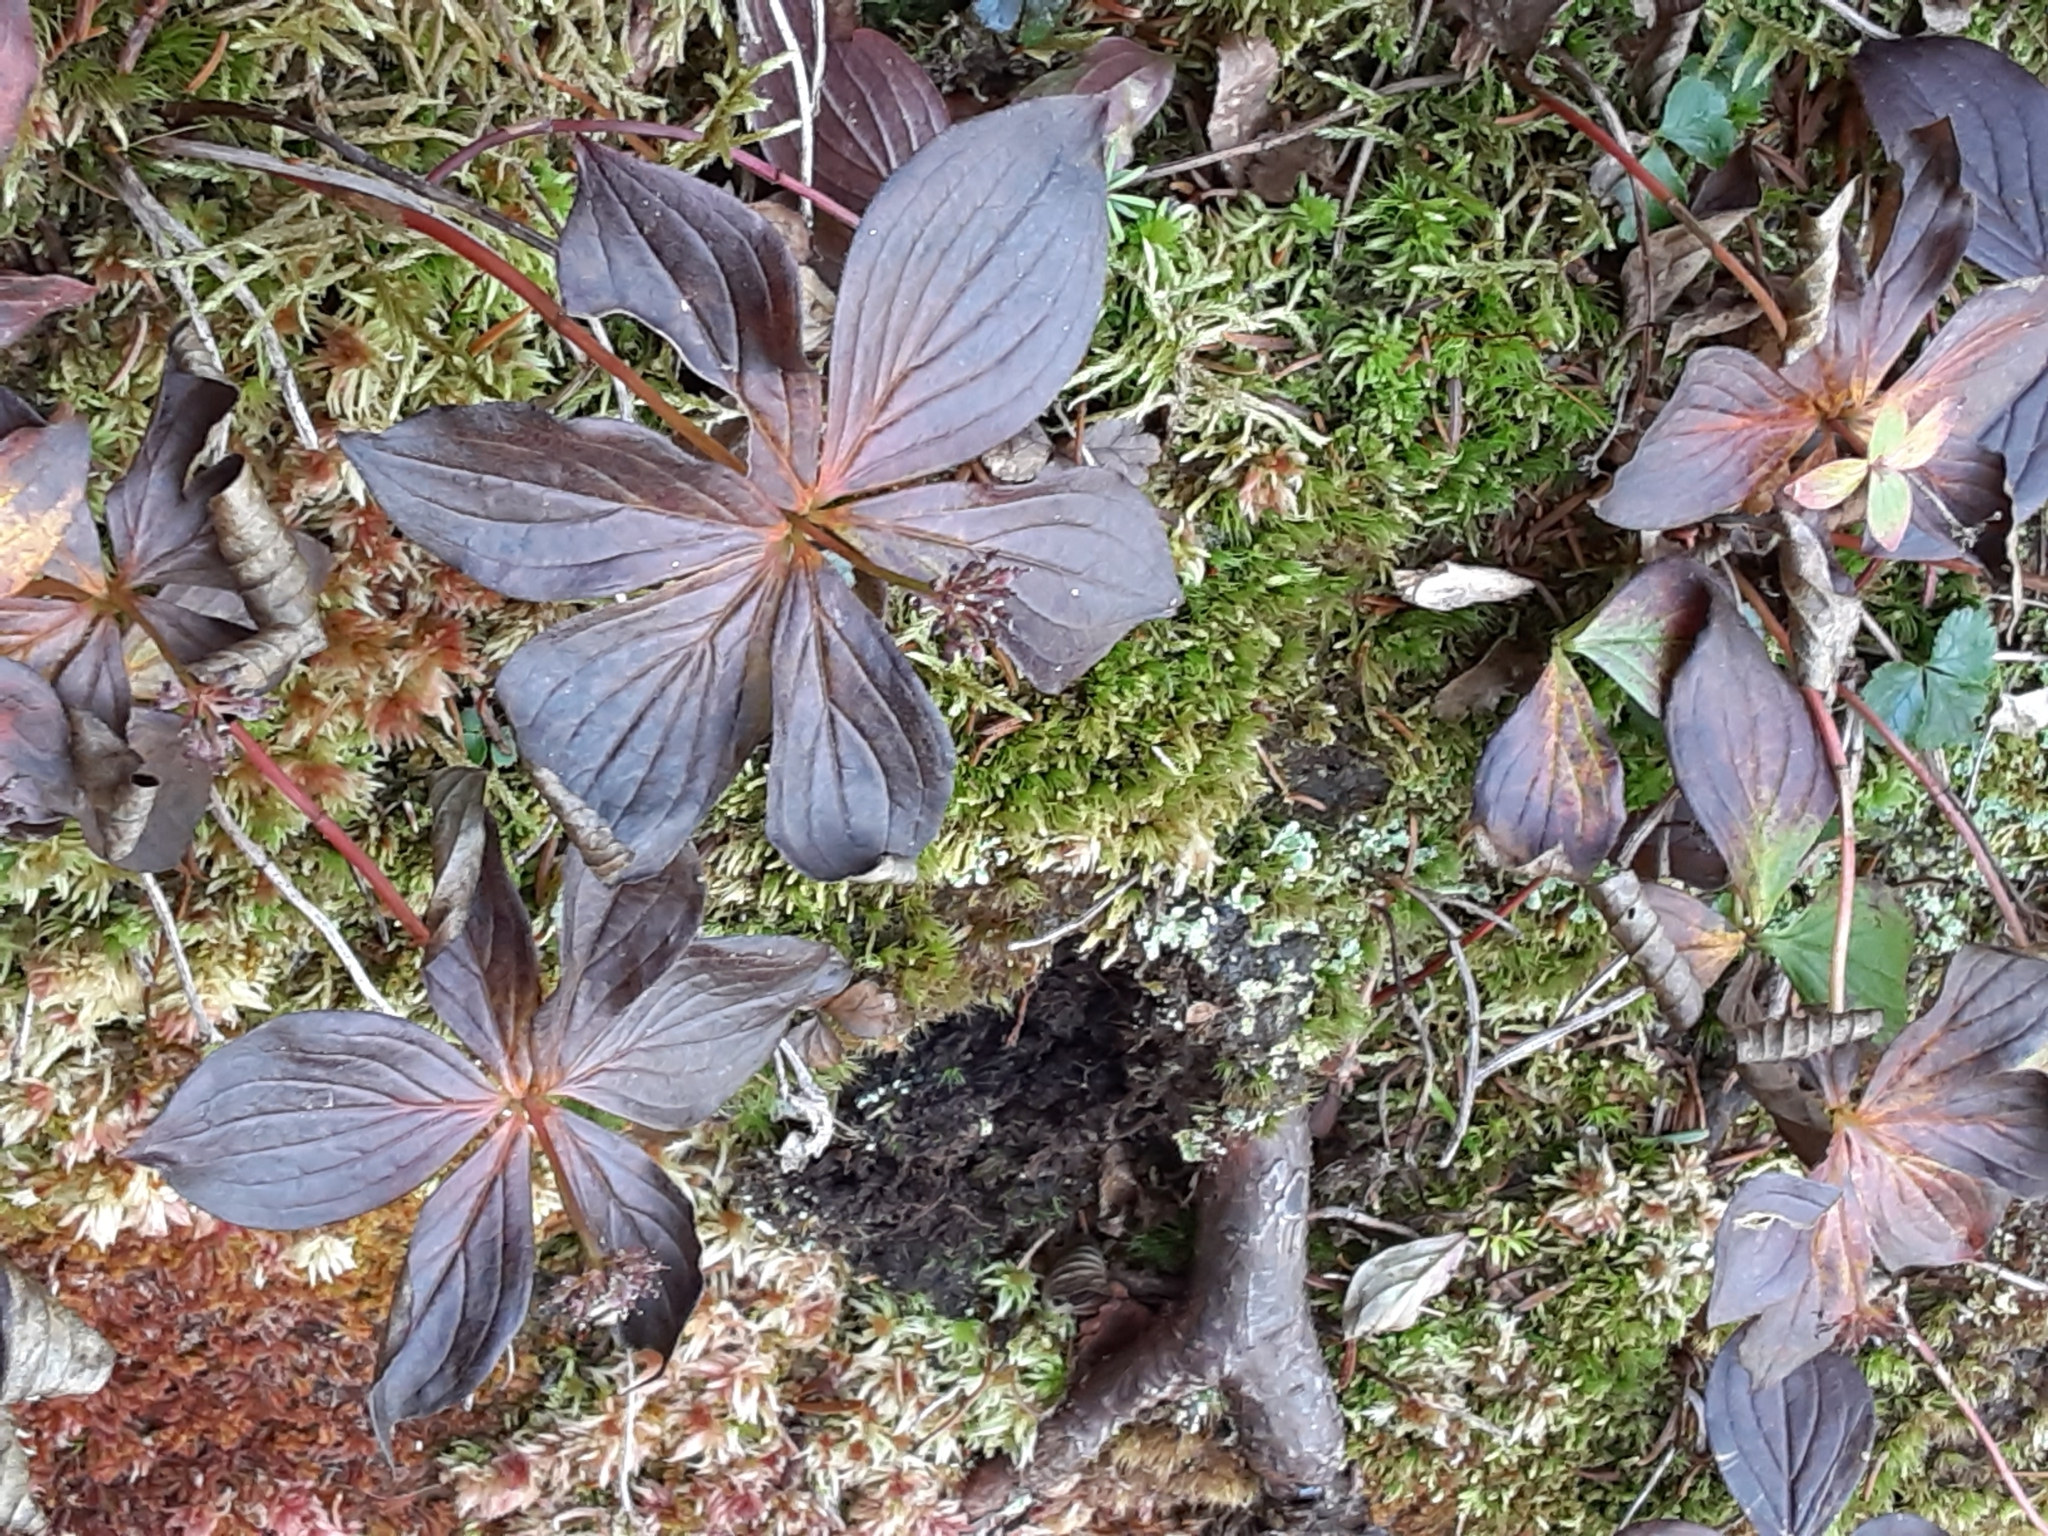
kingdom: Plantae
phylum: Tracheophyta
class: Magnoliopsida
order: Cornales
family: Cornaceae
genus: Cornus
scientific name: Cornus canadensis
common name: Creeping dogwood
